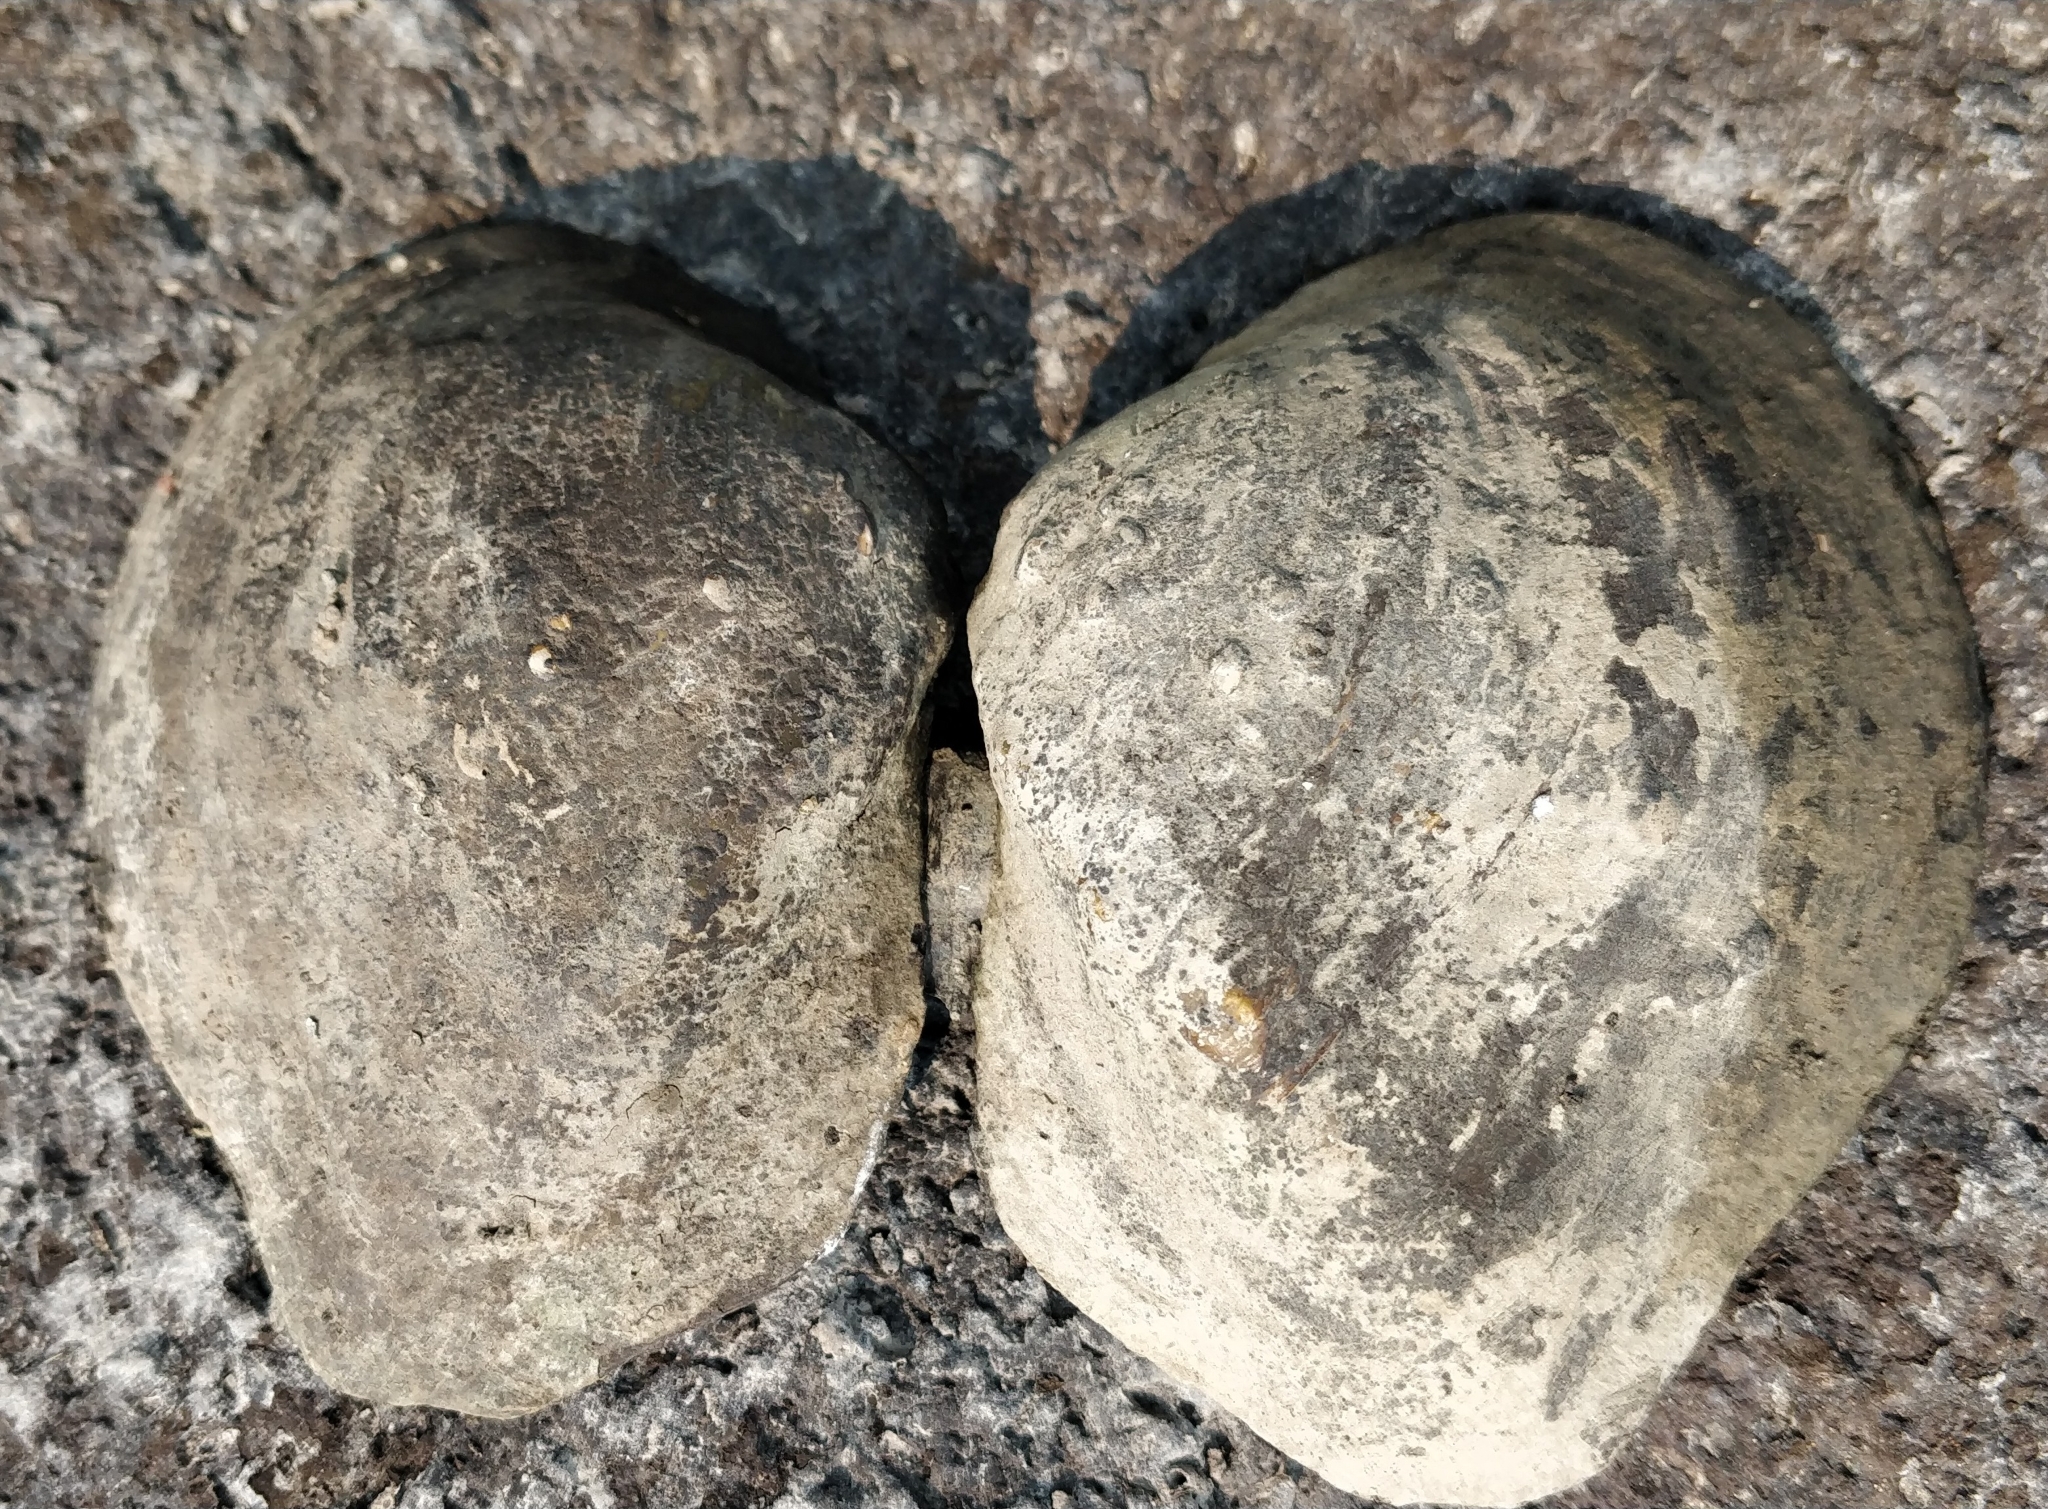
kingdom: Animalia
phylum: Mollusca
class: Bivalvia
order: Unionida
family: Unionidae
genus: Quadrula
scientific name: Quadrula quadrula
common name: Mapleleaf
